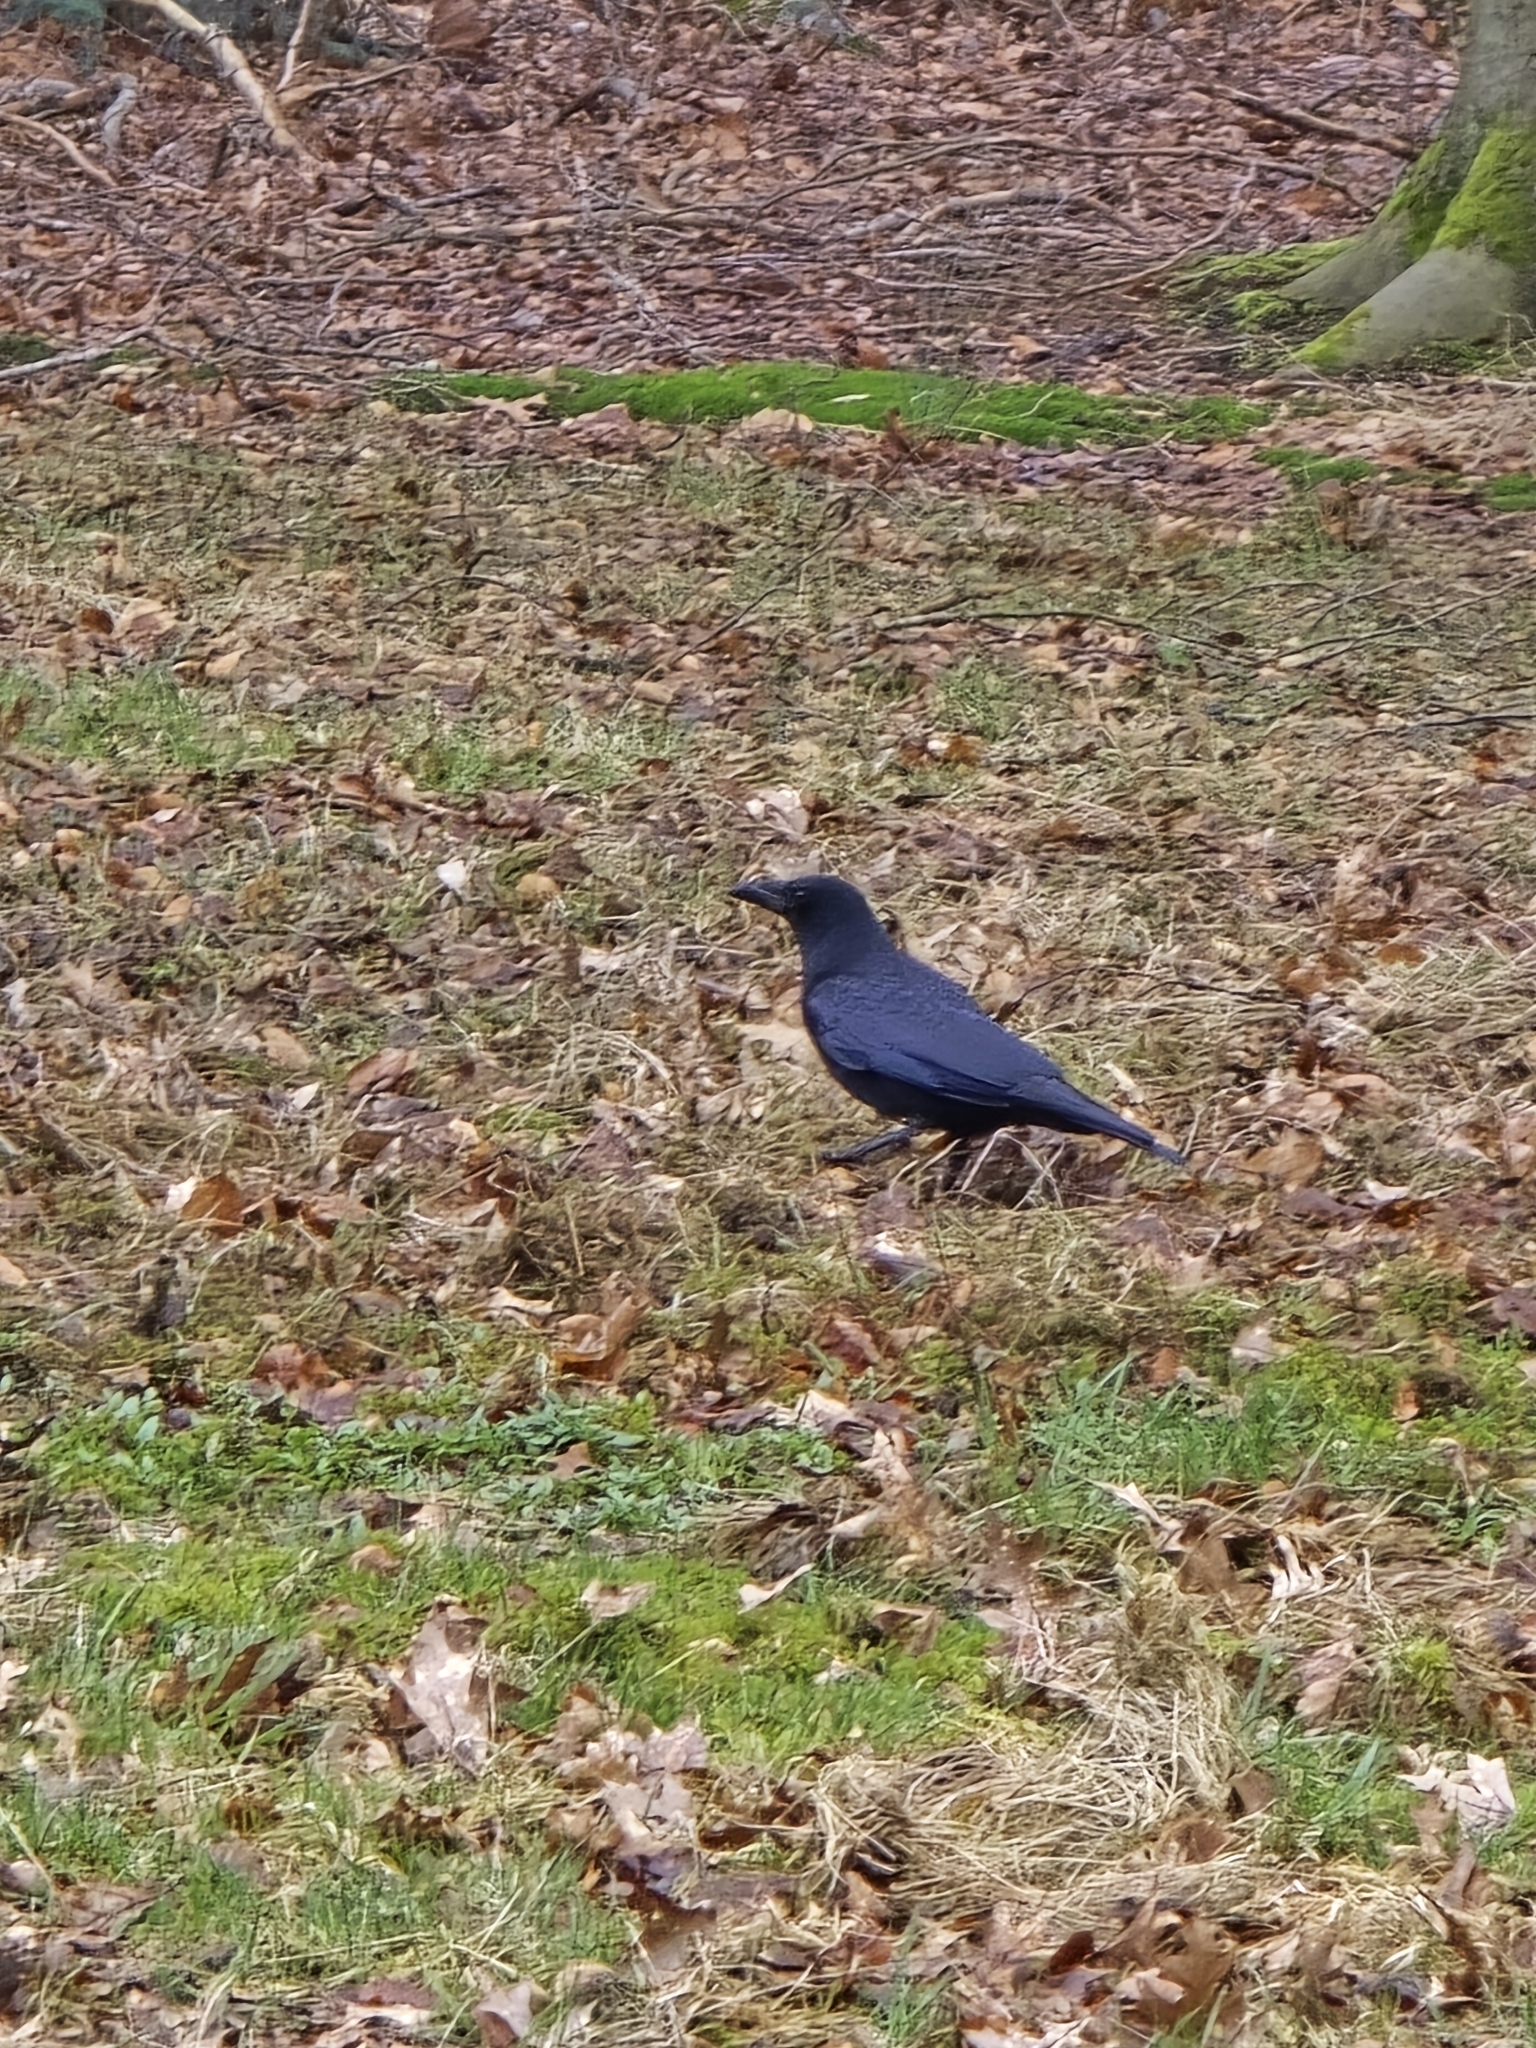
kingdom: Animalia
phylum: Chordata
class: Aves
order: Passeriformes
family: Corvidae
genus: Corvus
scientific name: Corvus corone
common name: Carrion crow
